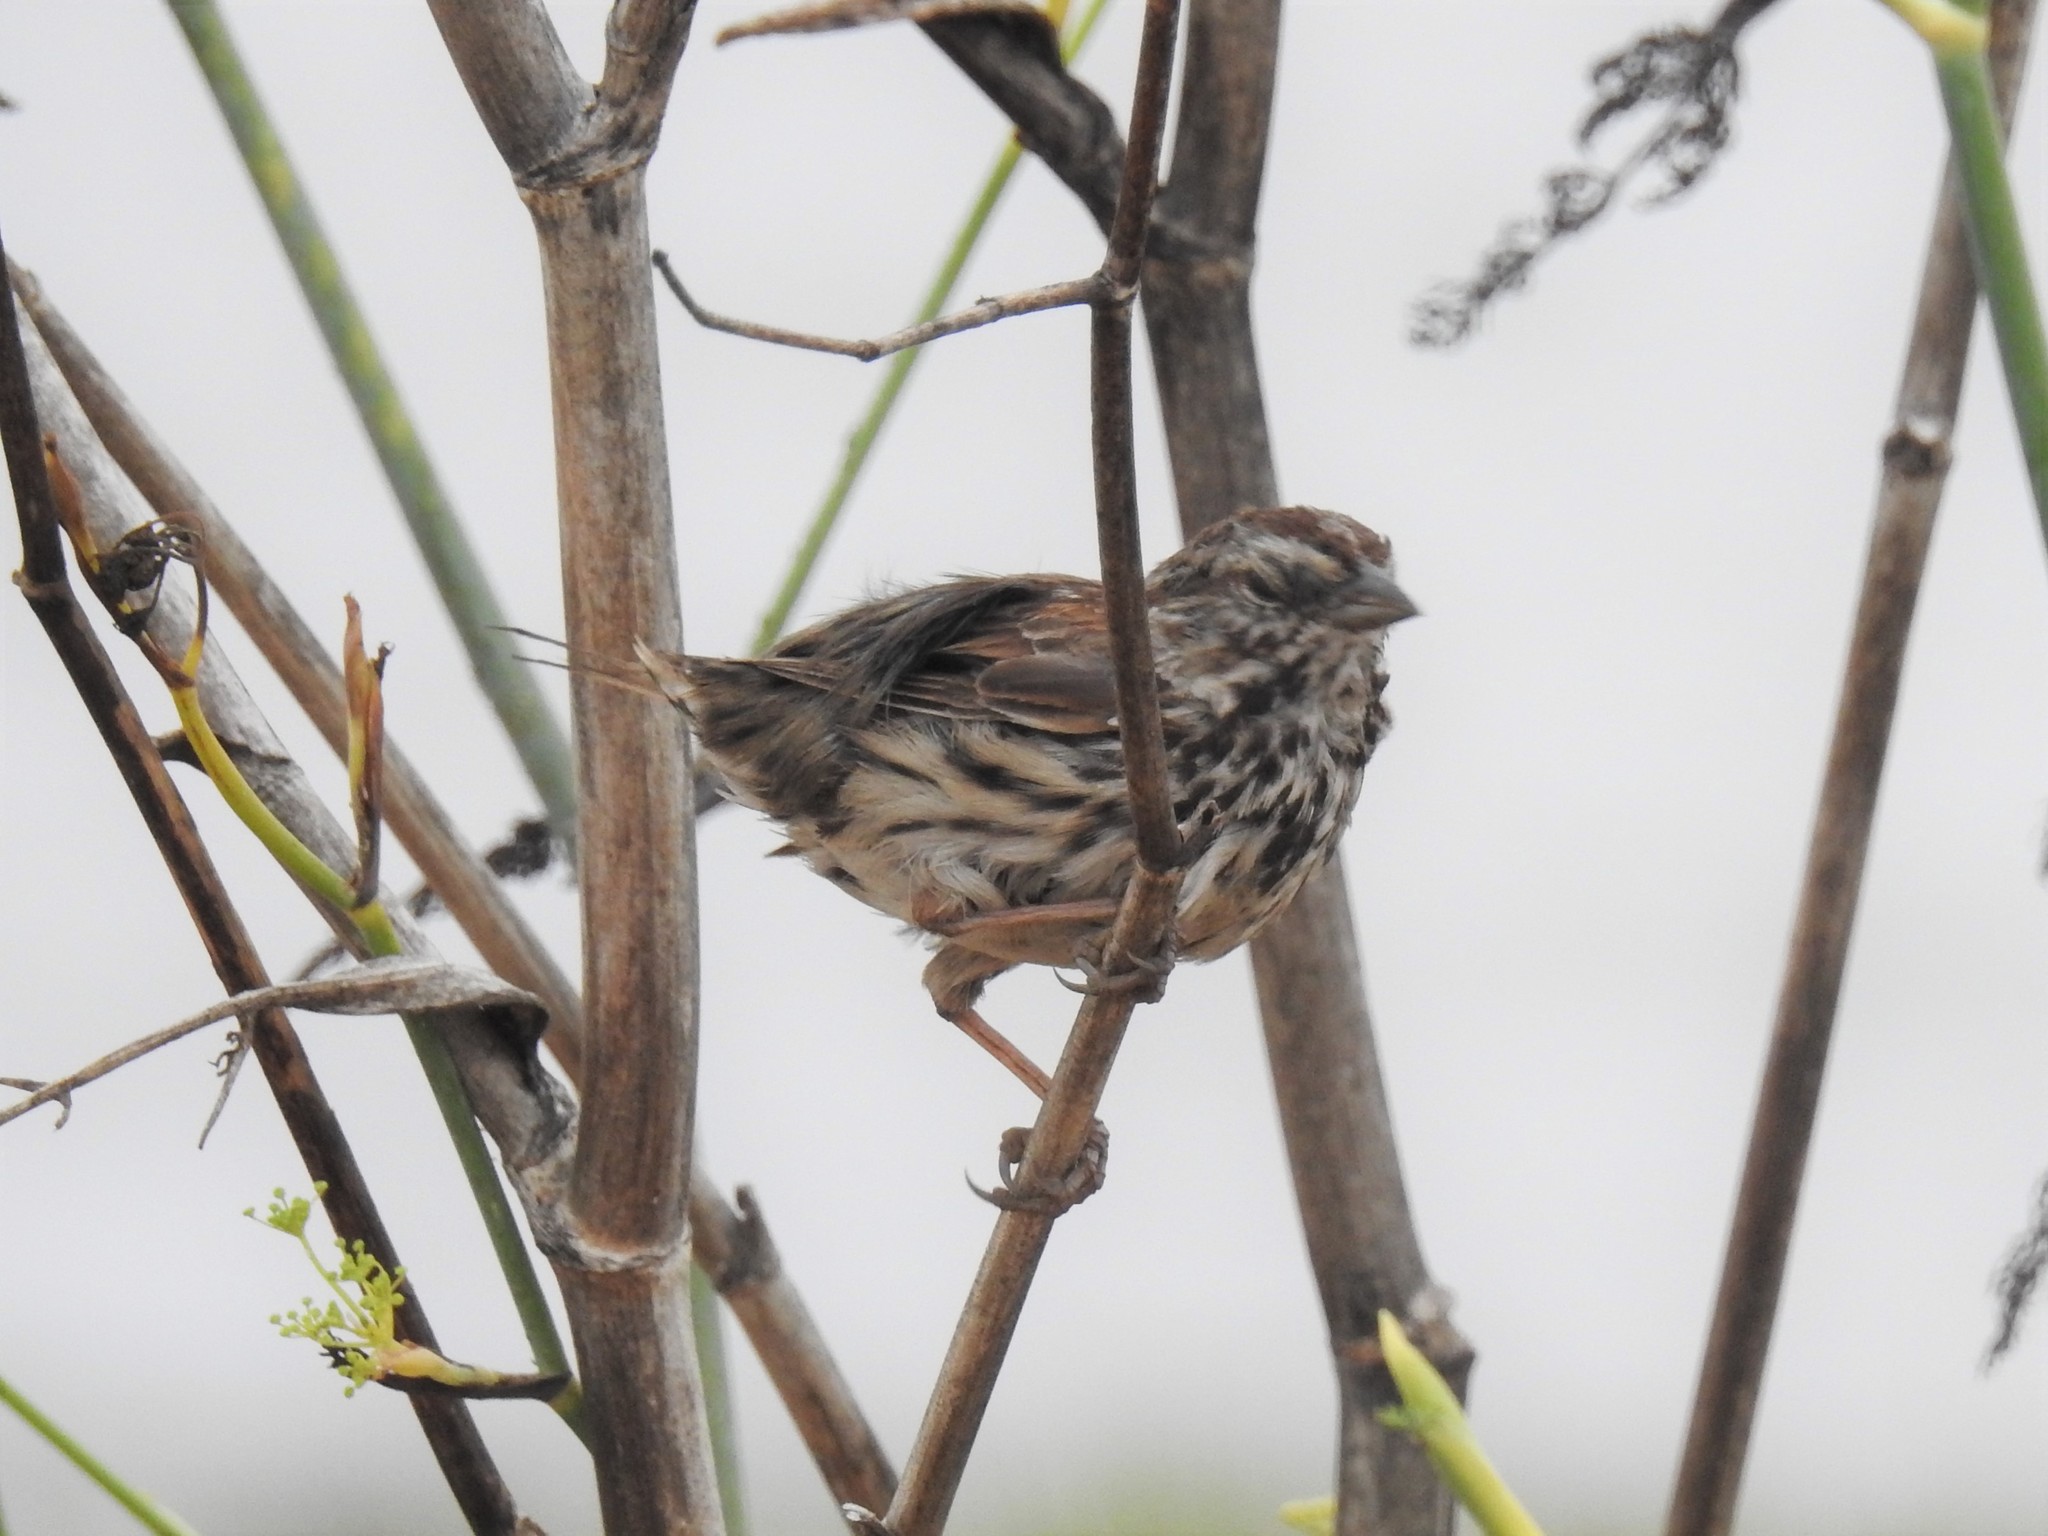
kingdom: Animalia
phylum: Chordata
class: Aves
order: Passeriformes
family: Passerellidae
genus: Melospiza
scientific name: Melospiza melodia
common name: Song sparrow
